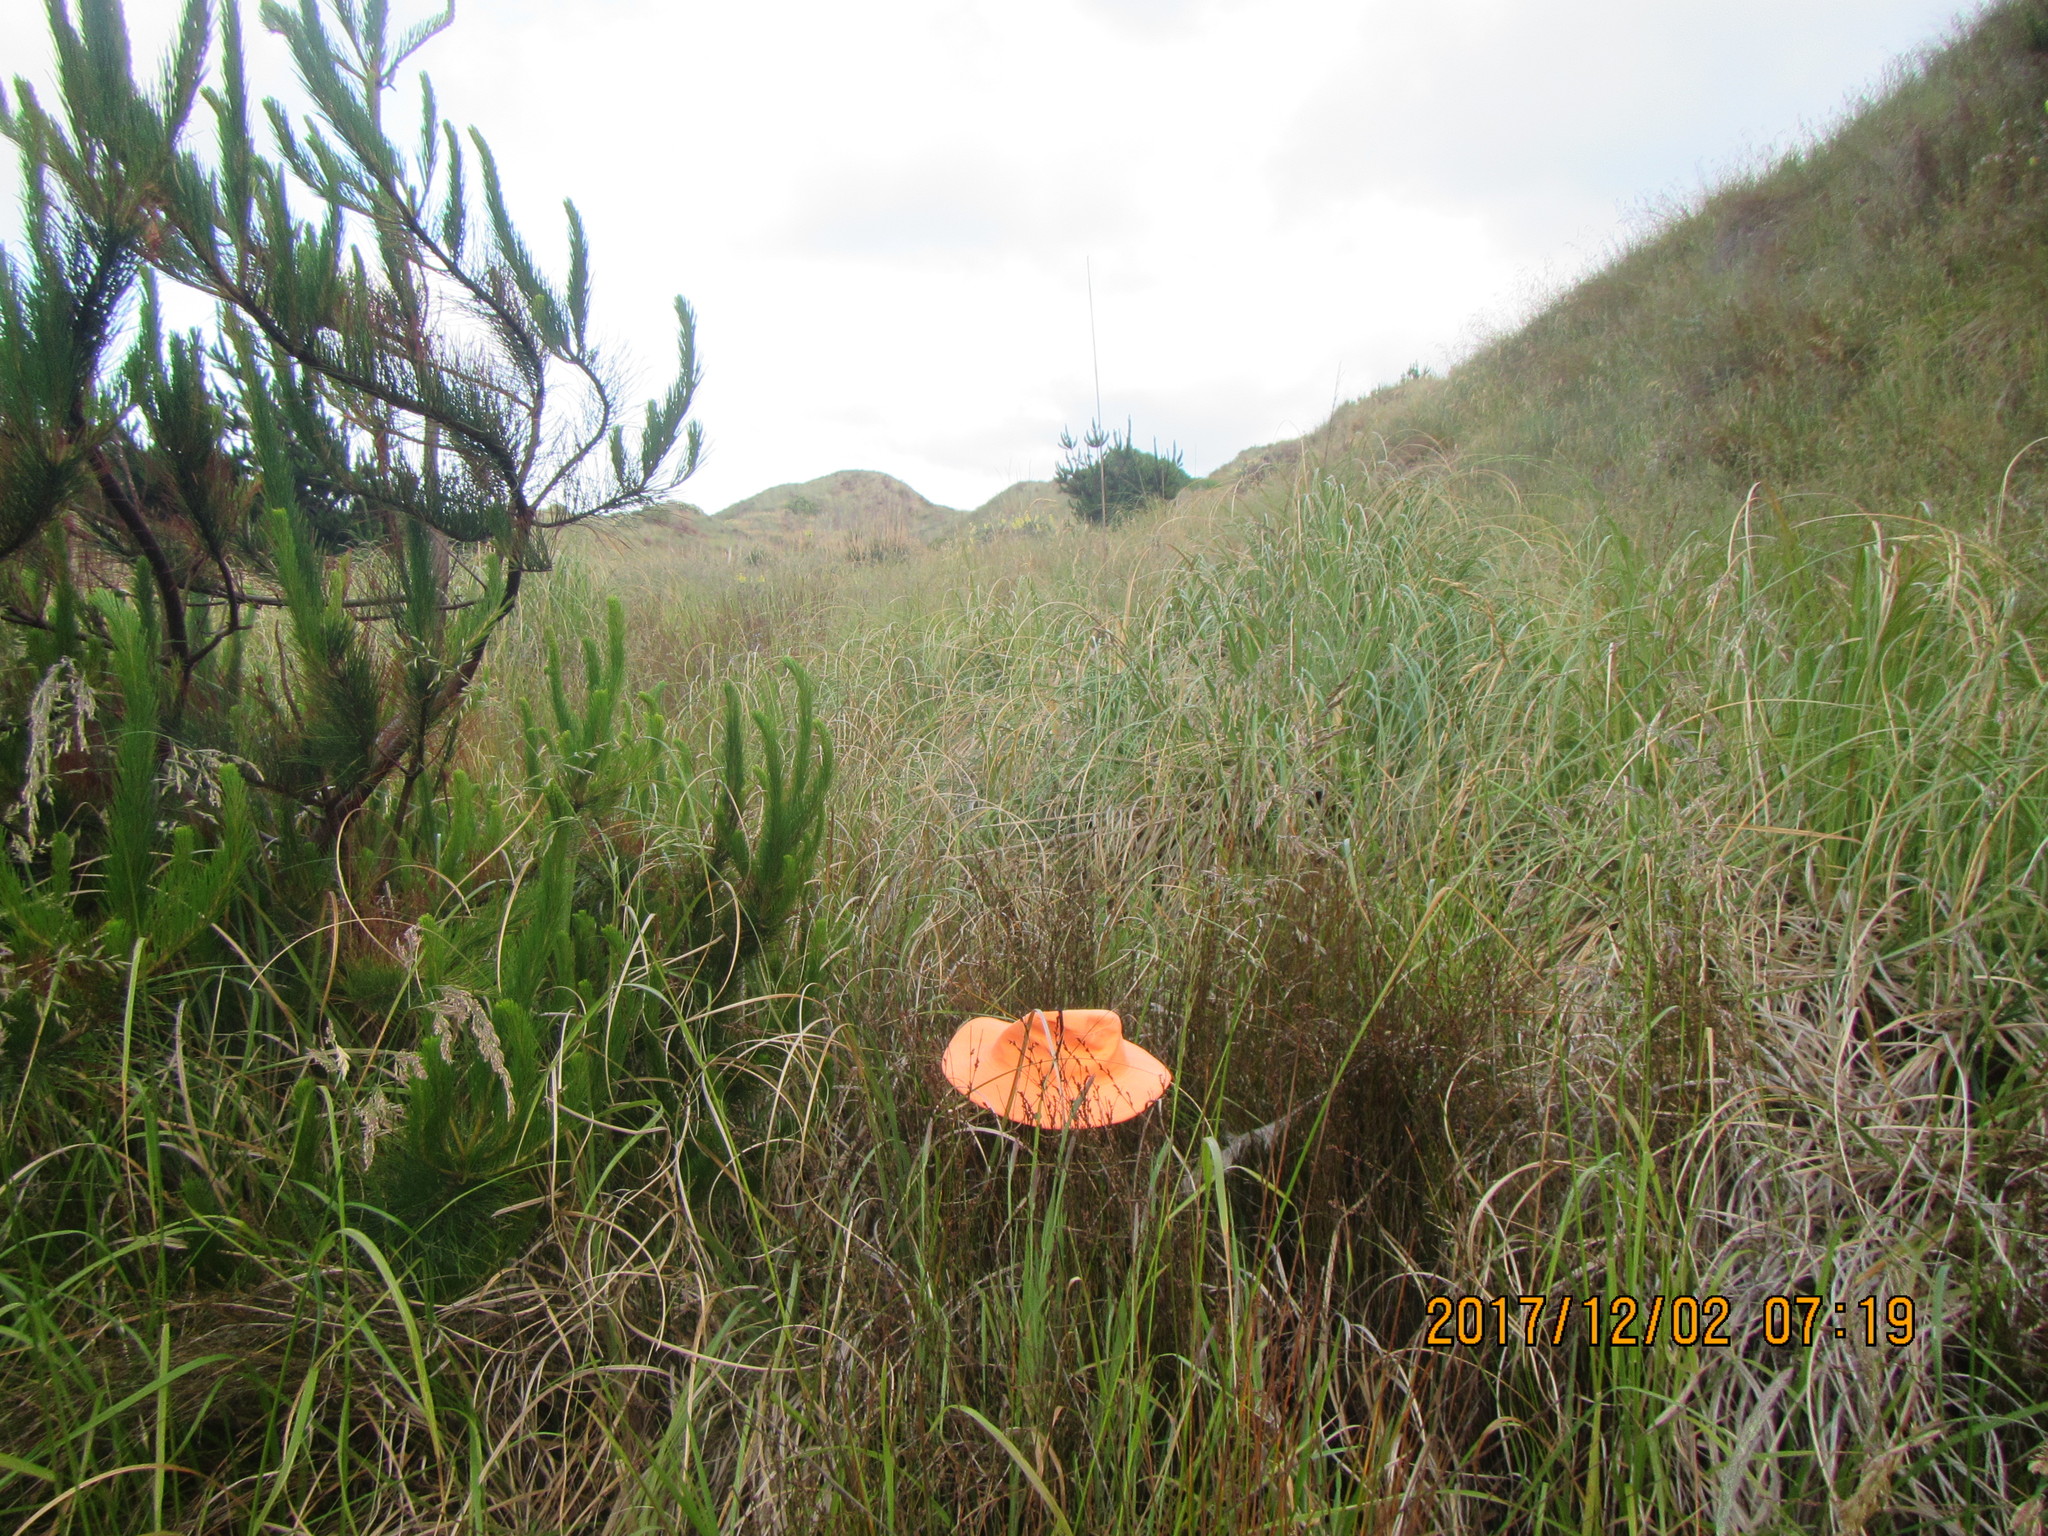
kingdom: Plantae
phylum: Tracheophyta
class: Liliopsida
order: Poales
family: Restionaceae
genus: Apodasmia
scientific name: Apodasmia similis
